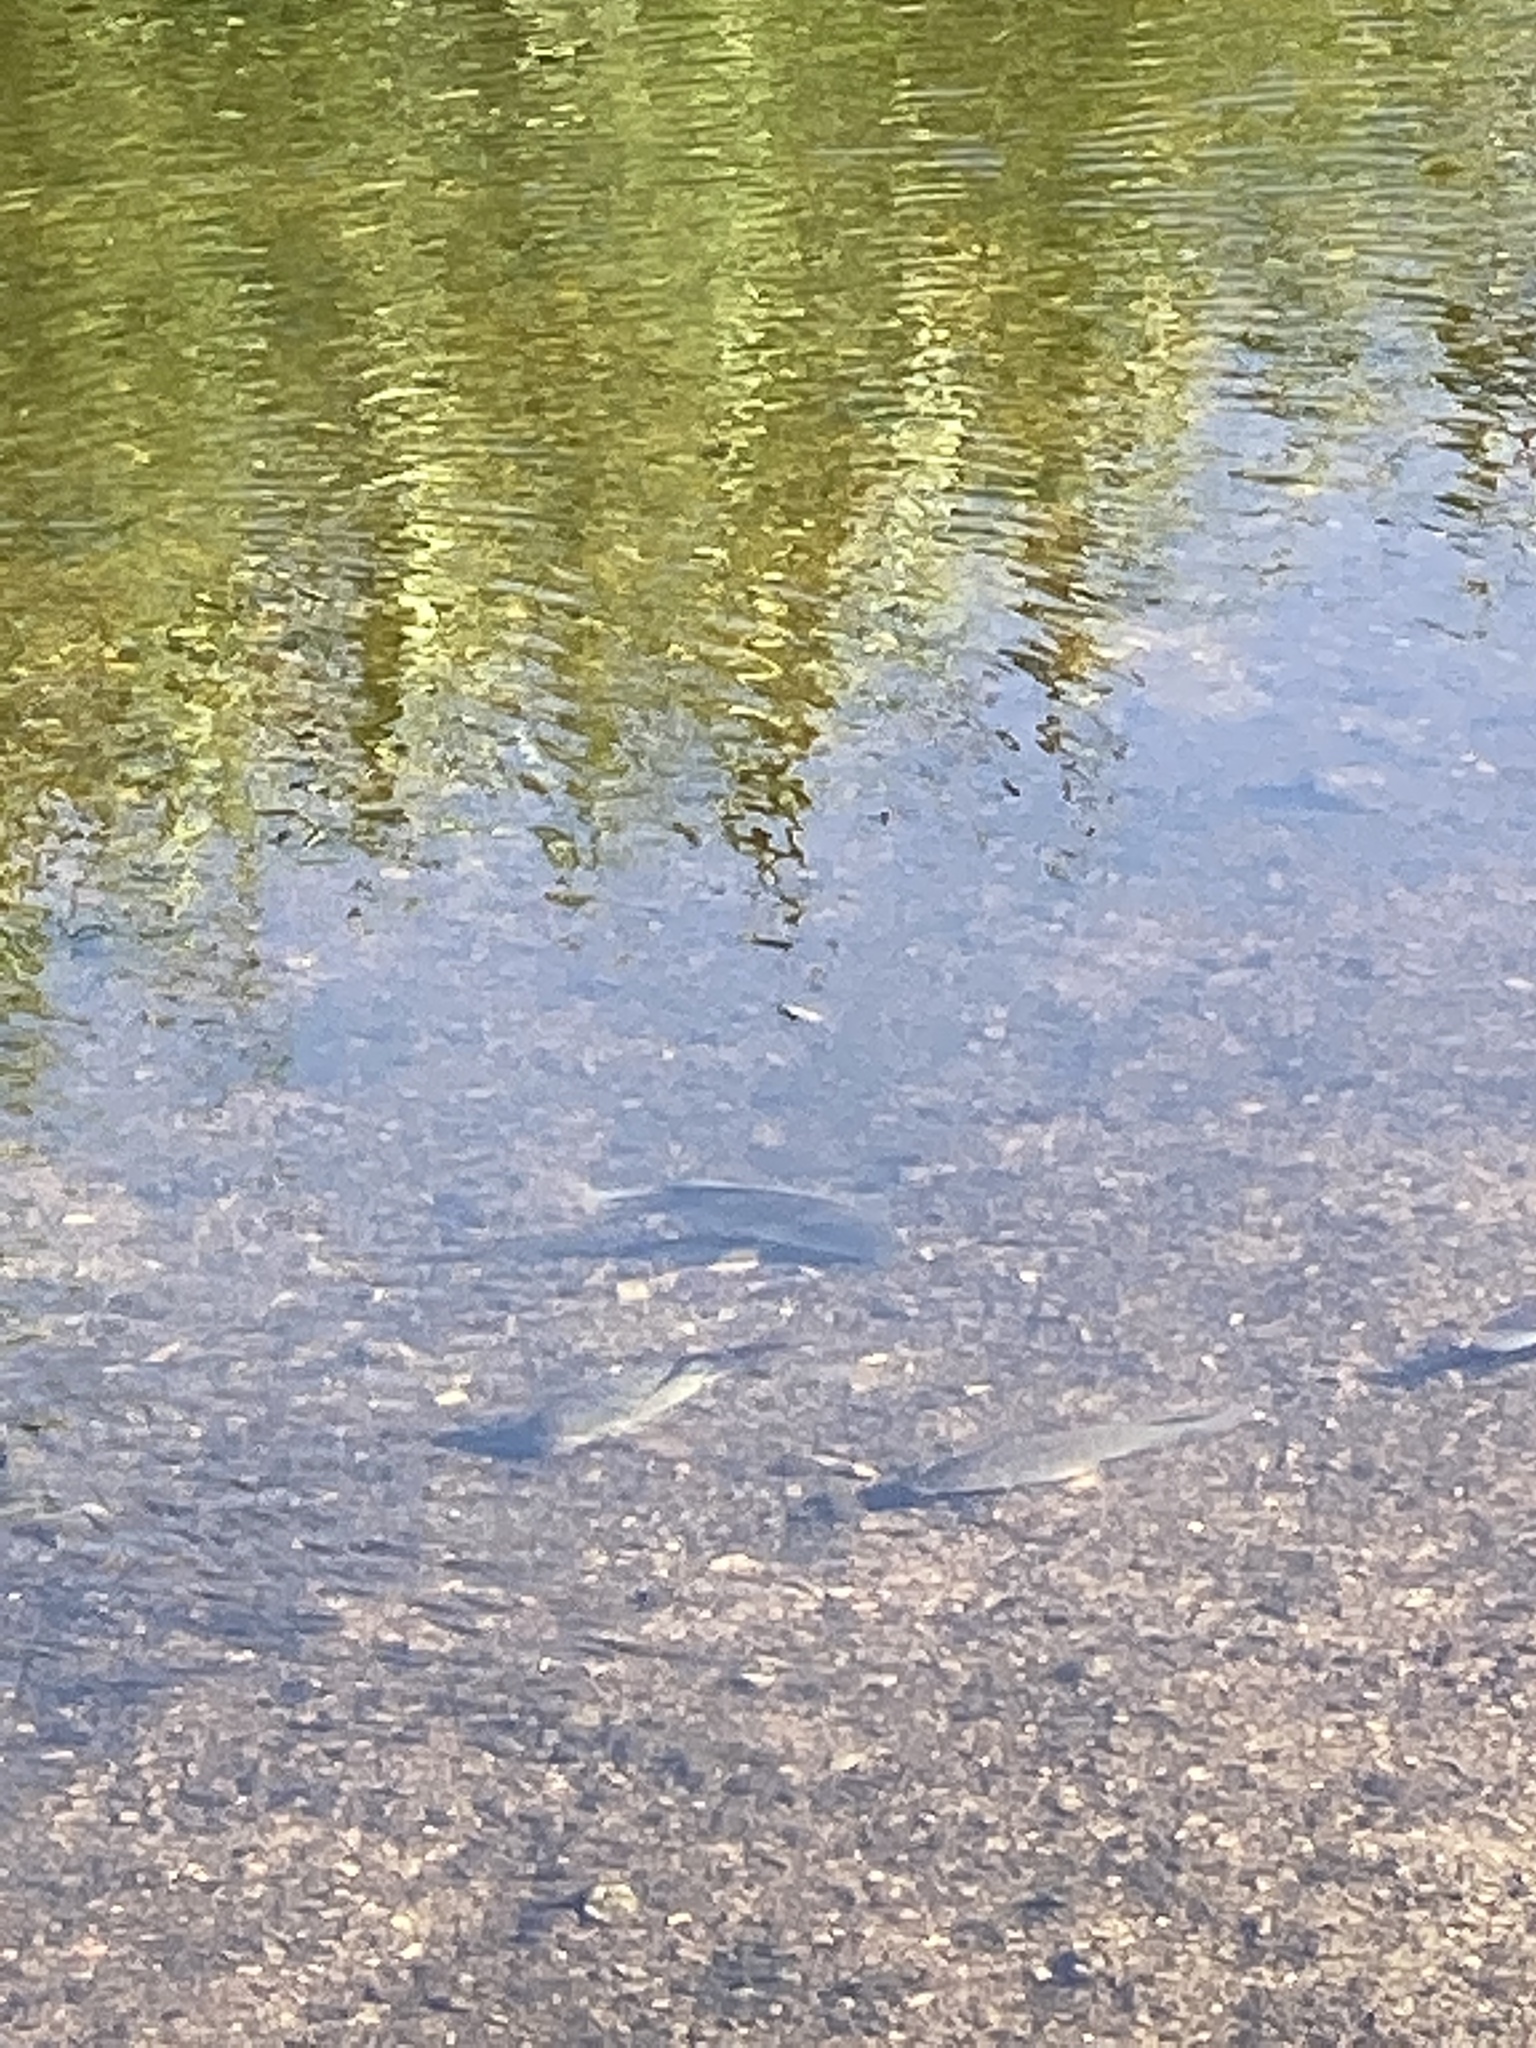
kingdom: Animalia
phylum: Chordata
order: Perciformes
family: Cichlidae
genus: Oreochromis
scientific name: Oreochromis mossambicus
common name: Mozambique tilapia
